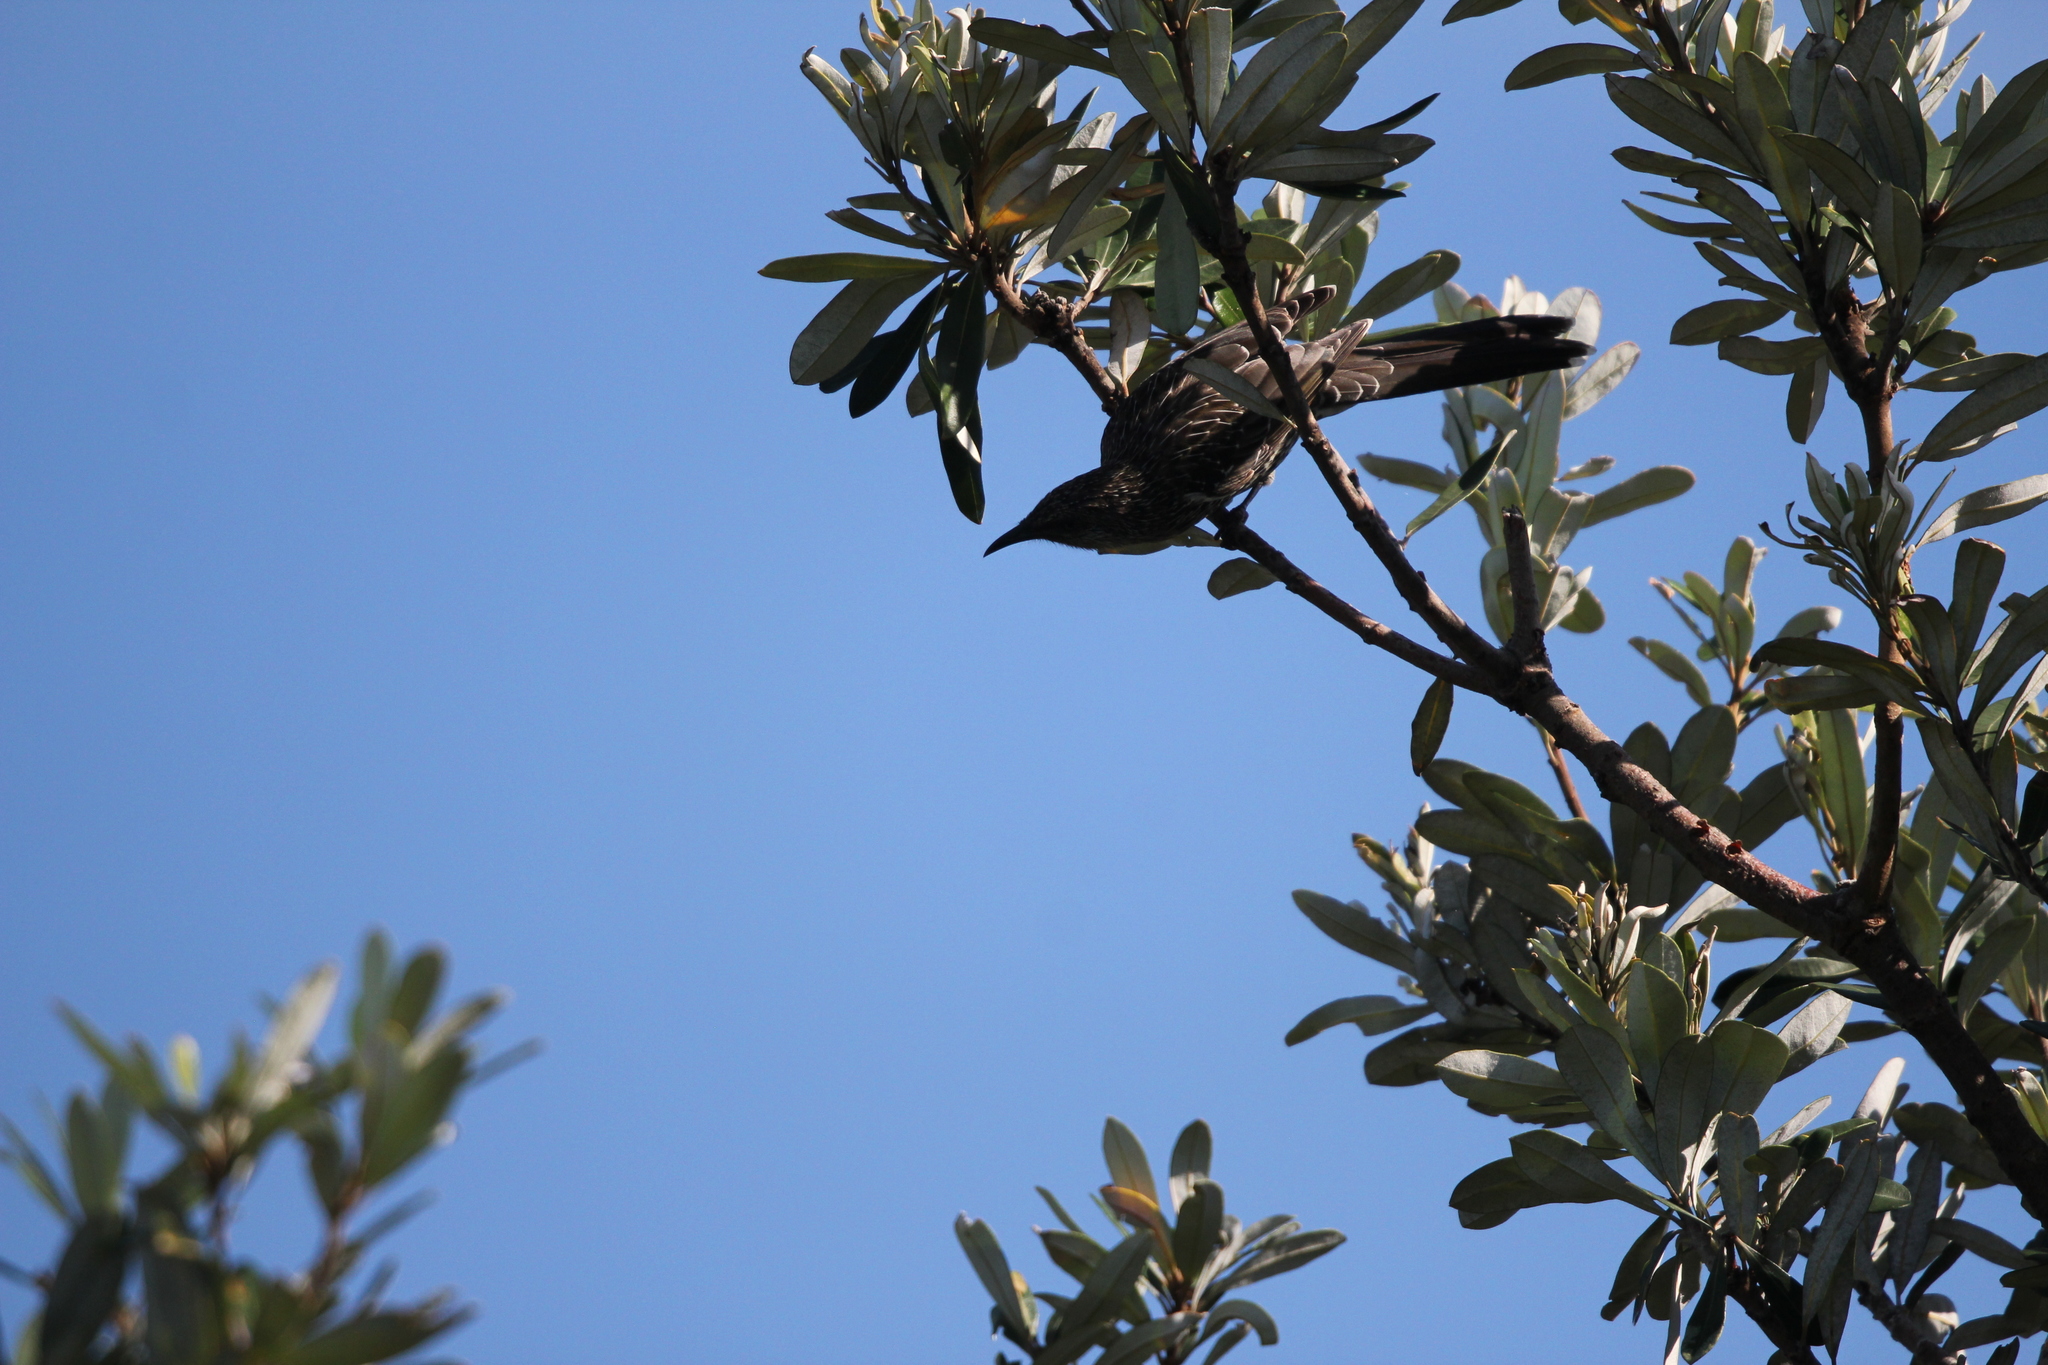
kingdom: Animalia
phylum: Chordata
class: Aves
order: Passeriformes
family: Meliphagidae
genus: Anthochaera
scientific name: Anthochaera chrysoptera
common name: Little wattlebird
